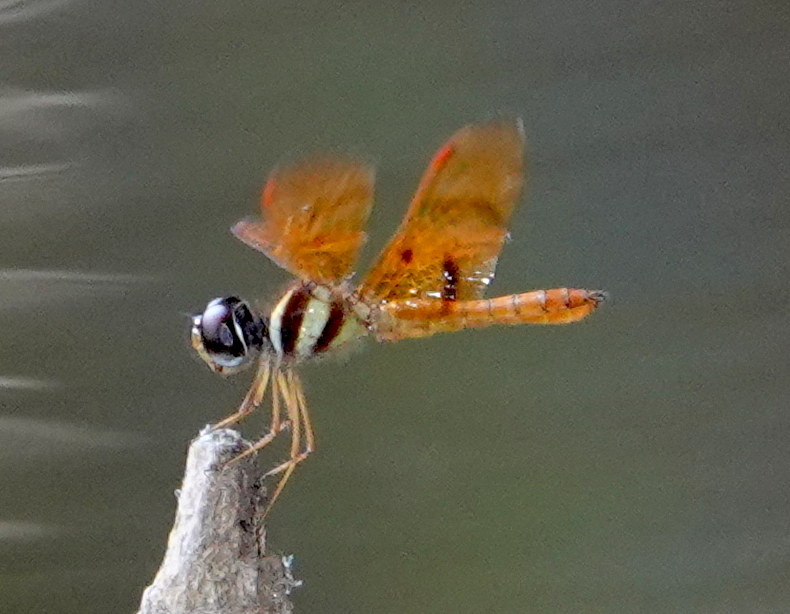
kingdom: Animalia
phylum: Arthropoda
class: Insecta
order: Odonata
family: Libellulidae
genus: Perithemis
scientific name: Perithemis lais
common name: Fine-banded amberwing
